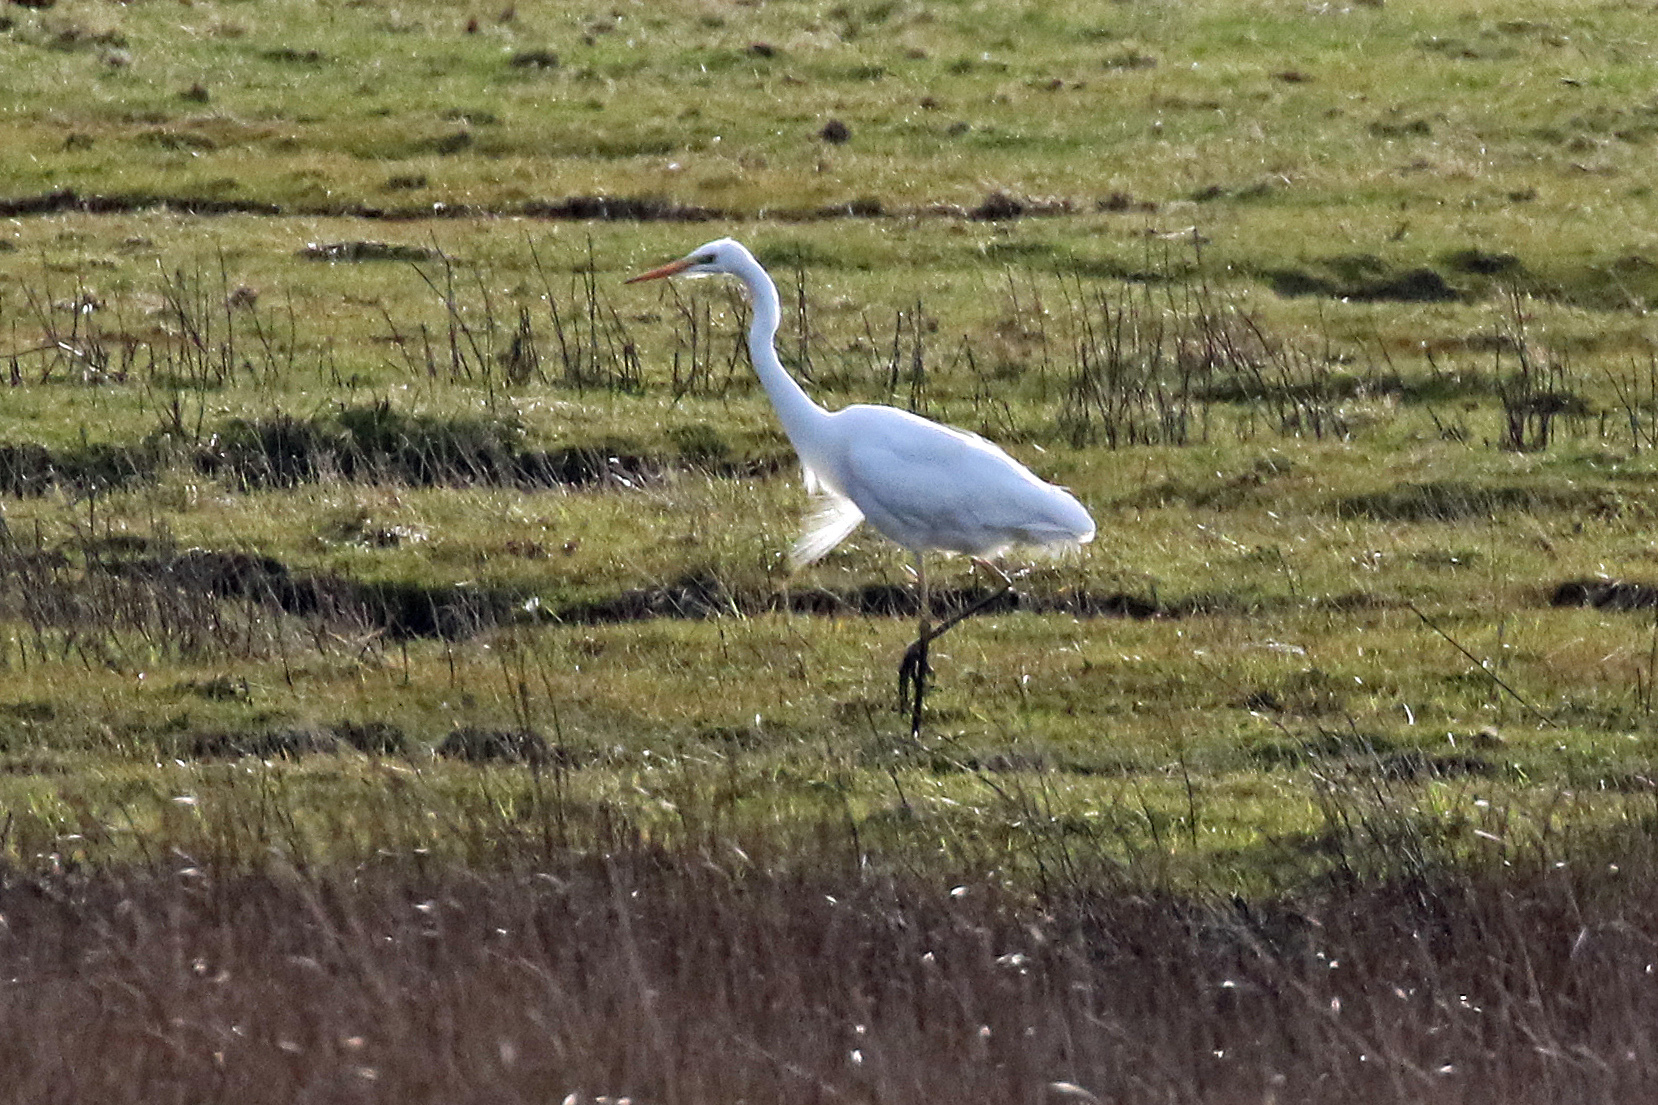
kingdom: Animalia
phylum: Chordata
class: Aves
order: Pelecaniformes
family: Ardeidae
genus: Ardea
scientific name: Ardea alba
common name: Great egret
